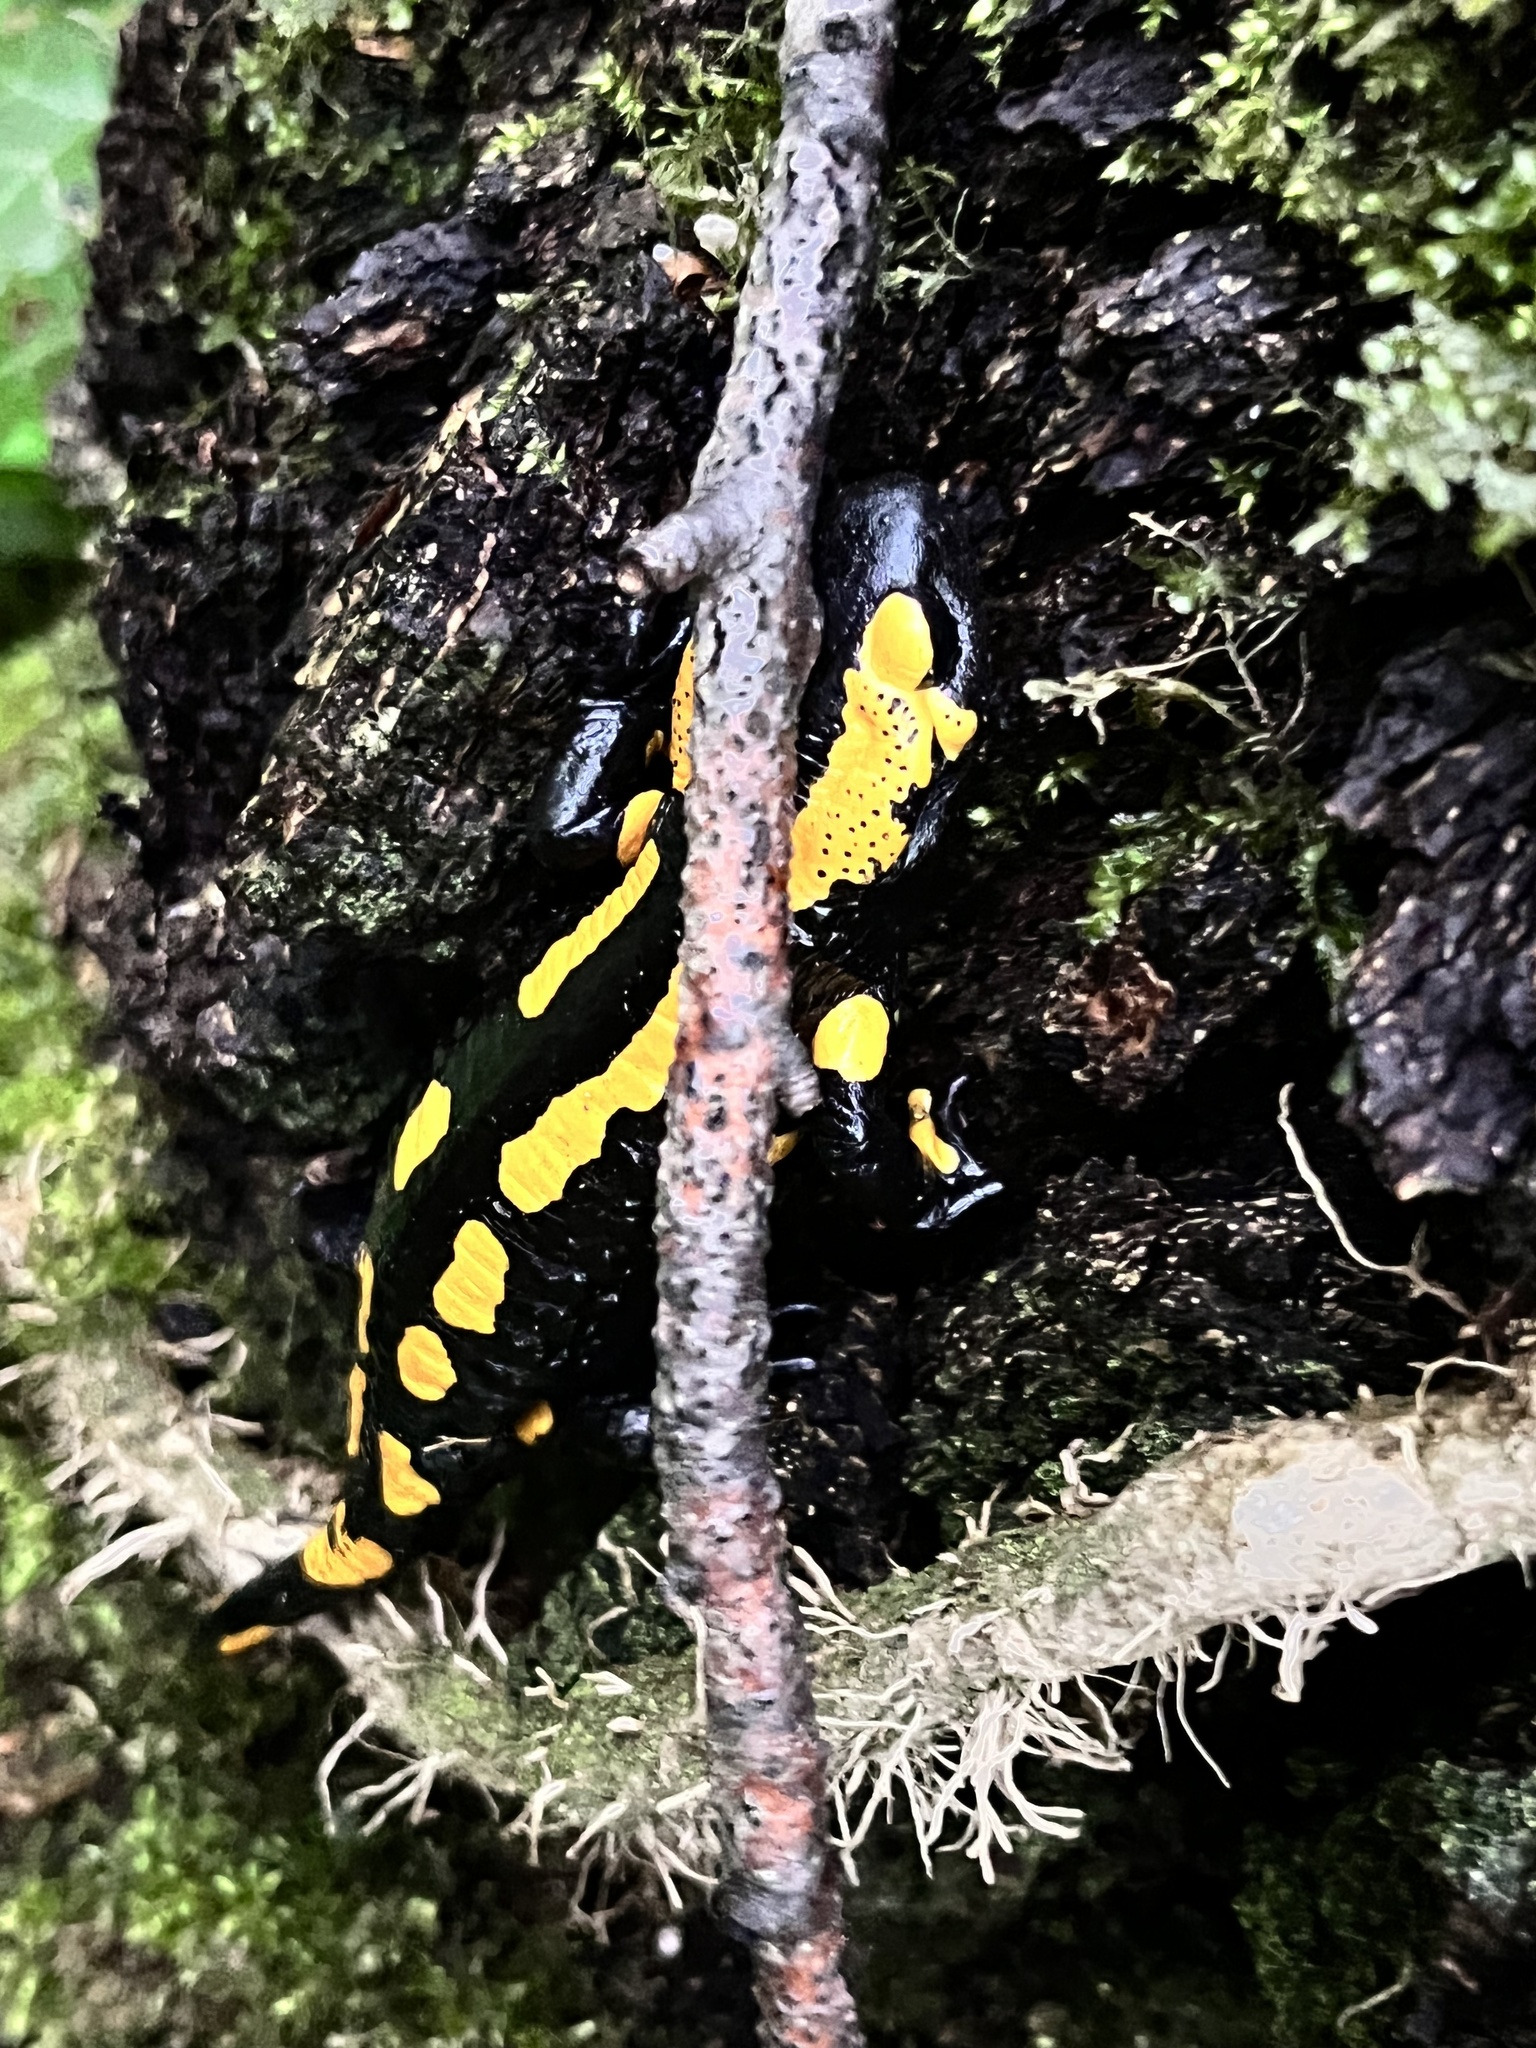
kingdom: Animalia
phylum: Chordata
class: Amphibia
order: Caudata
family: Salamandridae
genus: Salamandra
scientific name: Salamandra salamandra
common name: Fire salamander
